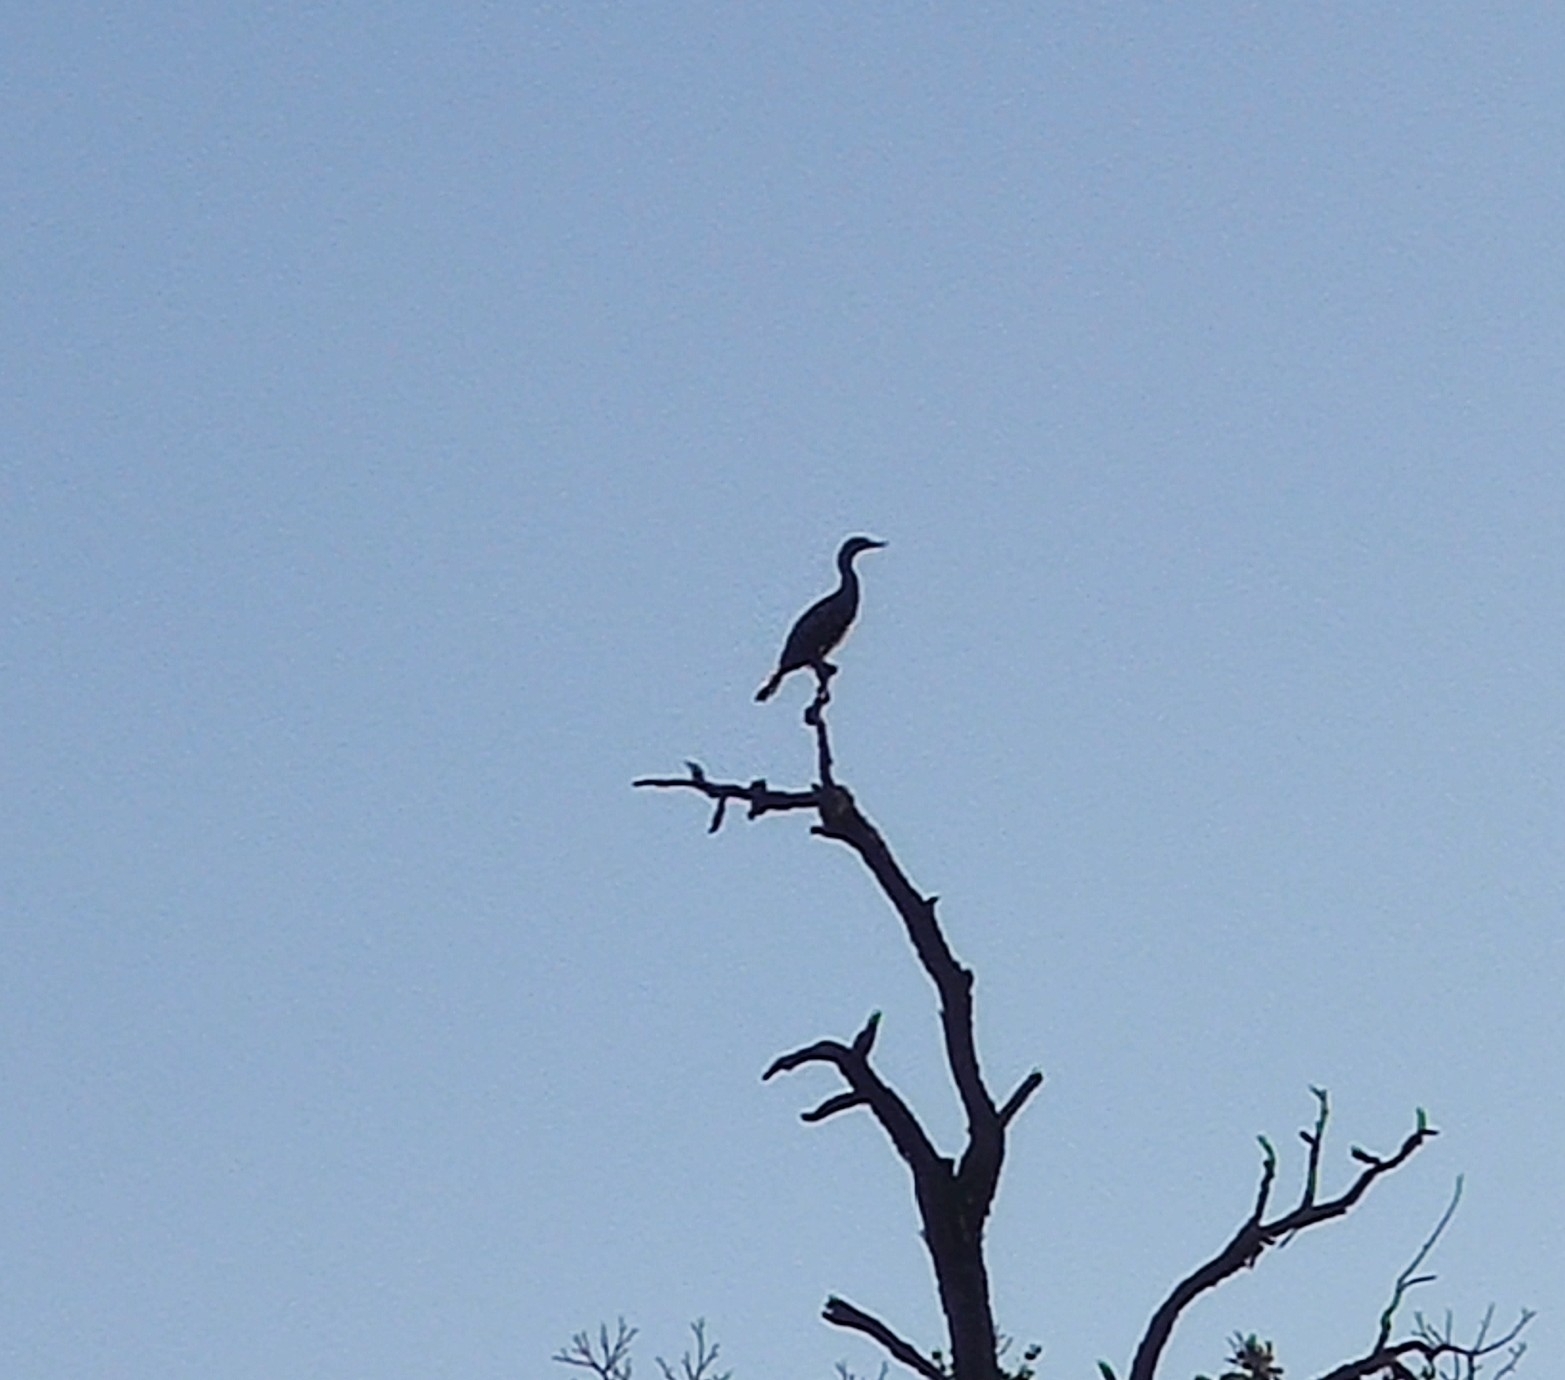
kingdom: Animalia
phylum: Chordata
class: Aves
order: Suliformes
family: Phalacrocoracidae
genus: Phalacrocorax
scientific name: Phalacrocorax auritus
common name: Double-crested cormorant
